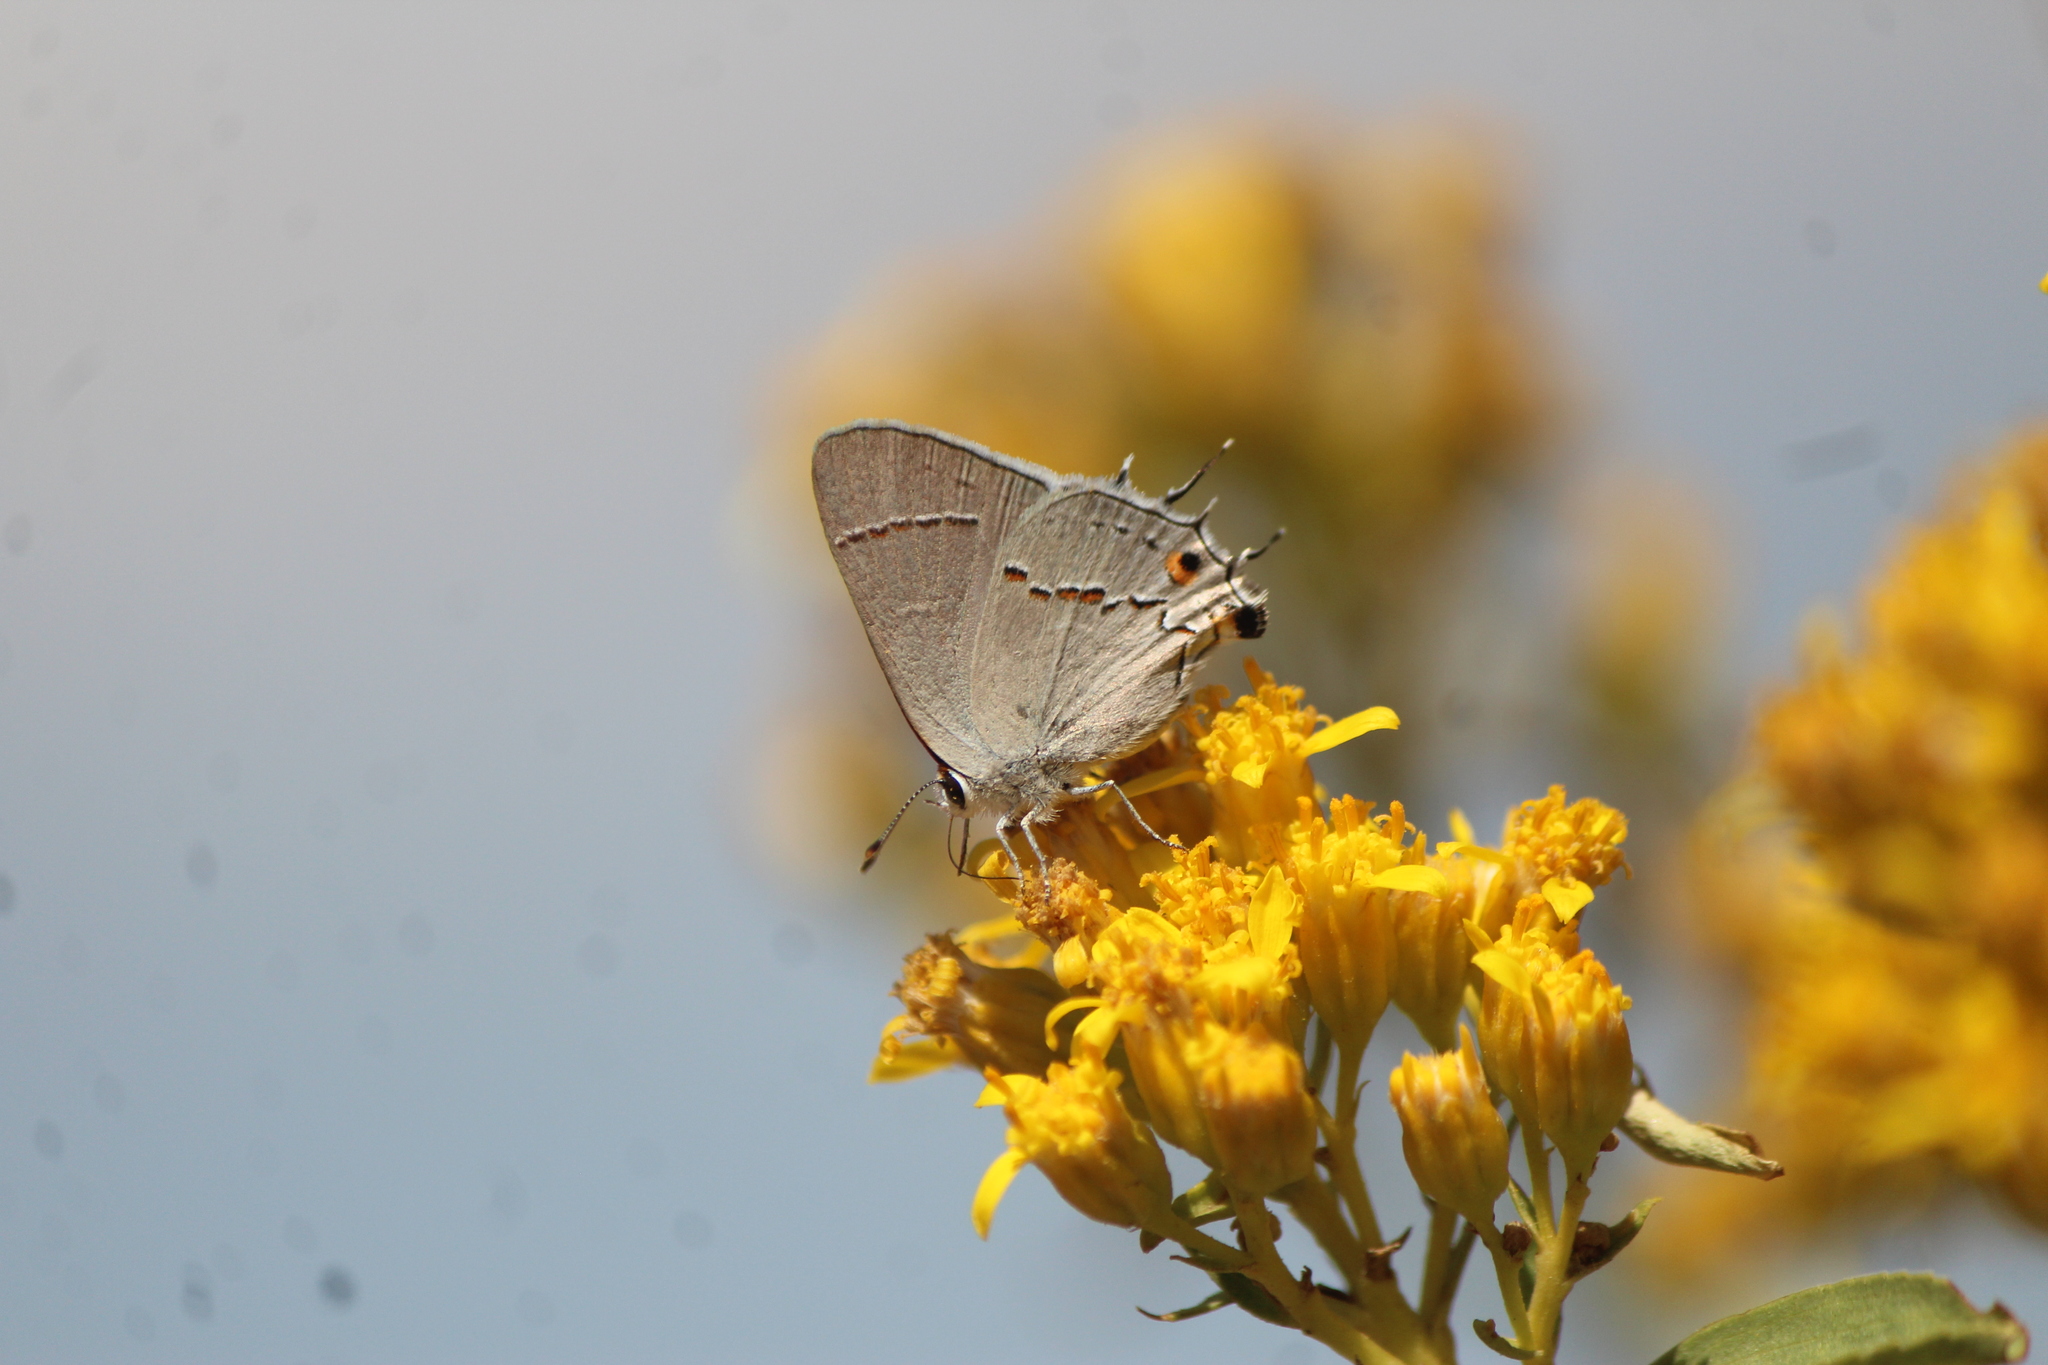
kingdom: Animalia
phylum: Arthropoda
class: Insecta
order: Lepidoptera
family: Lycaenidae
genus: Strymon
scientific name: Strymon melinus
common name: Gray hairstreak
